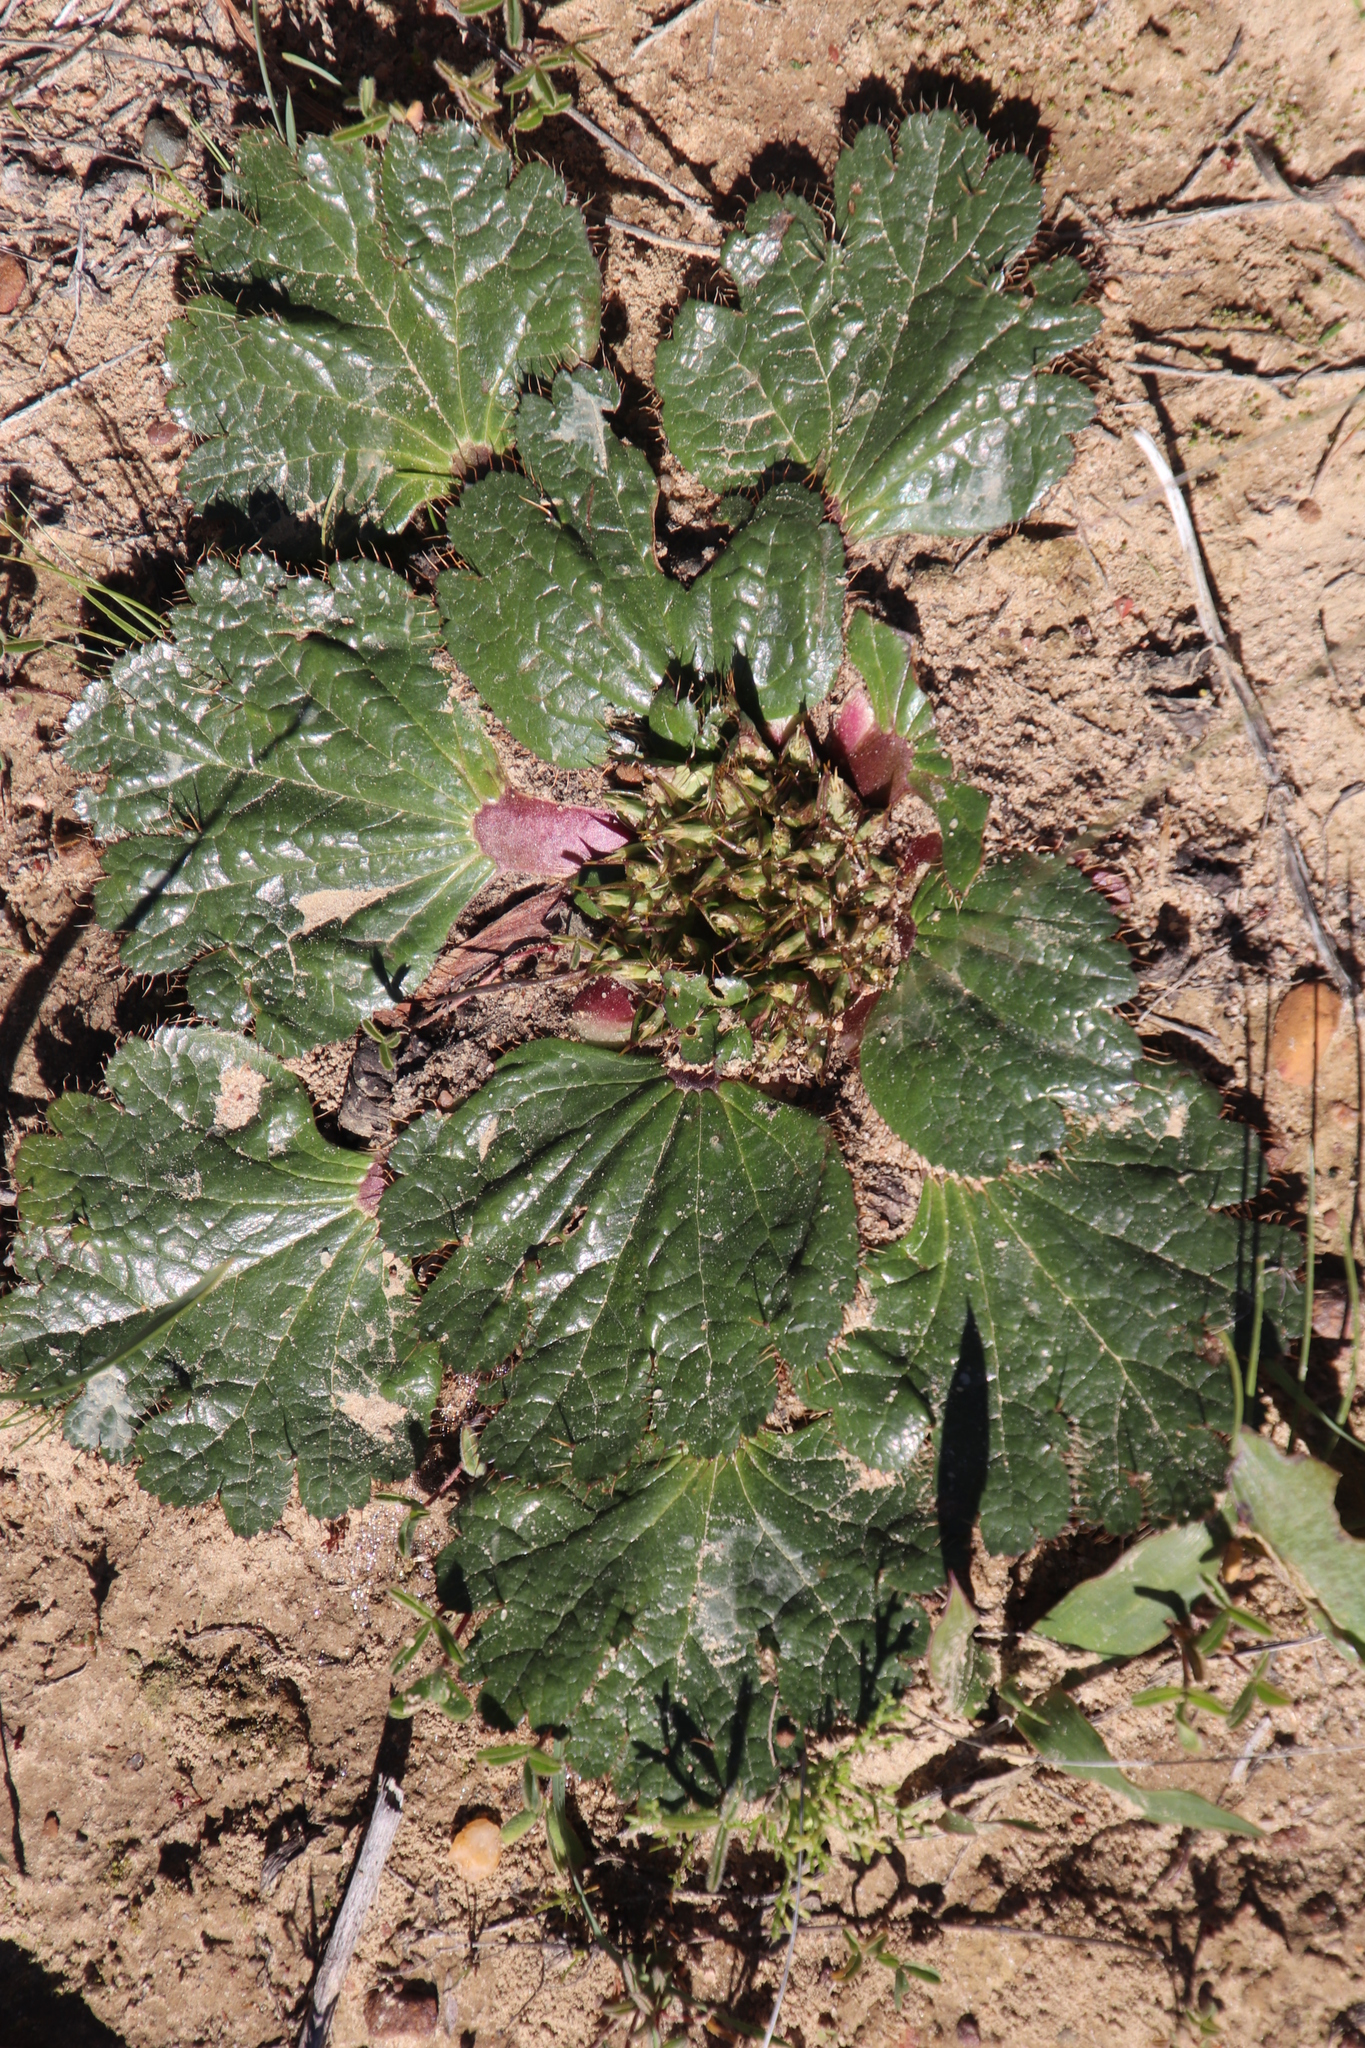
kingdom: Plantae
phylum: Tracheophyta
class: Magnoliopsida
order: Apiales
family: Apiaceae
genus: Arctopus
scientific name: Arctopus echinatus
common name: Platdoring
